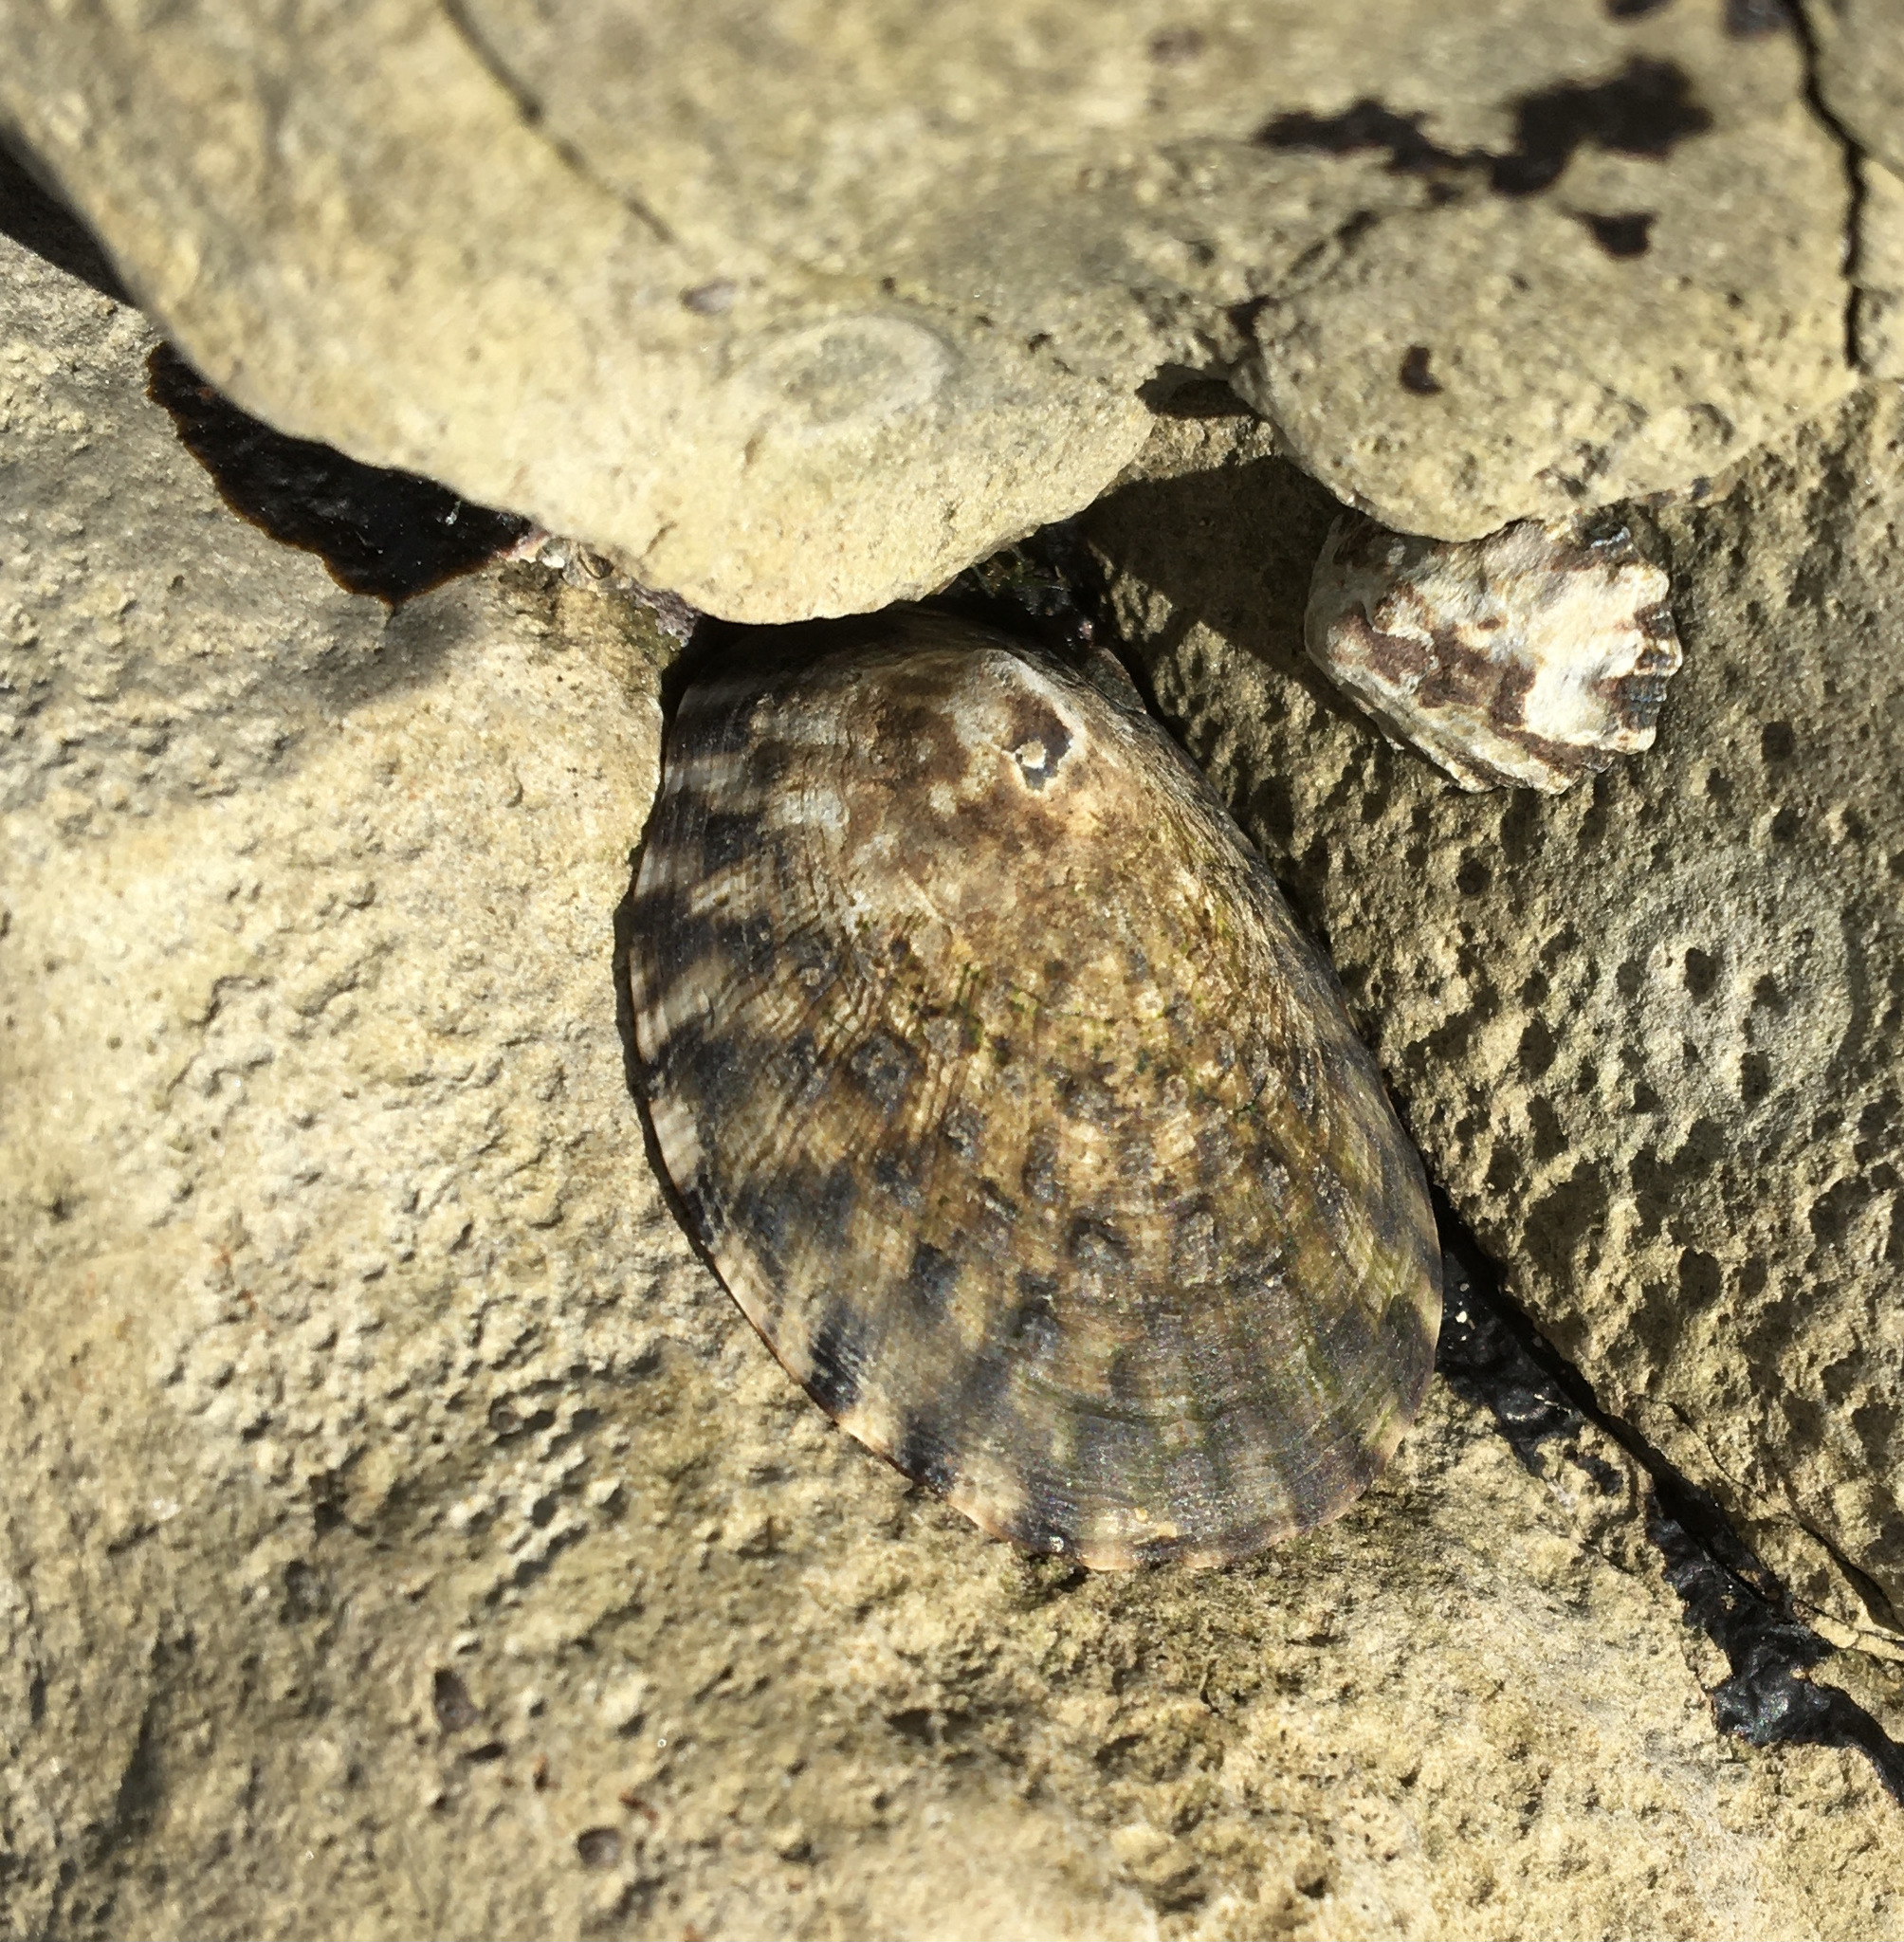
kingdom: Animalia
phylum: Mollusca
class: Gastropoda
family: Lottiidae
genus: Lottia
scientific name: Lottia gigantea
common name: Owl limpet
